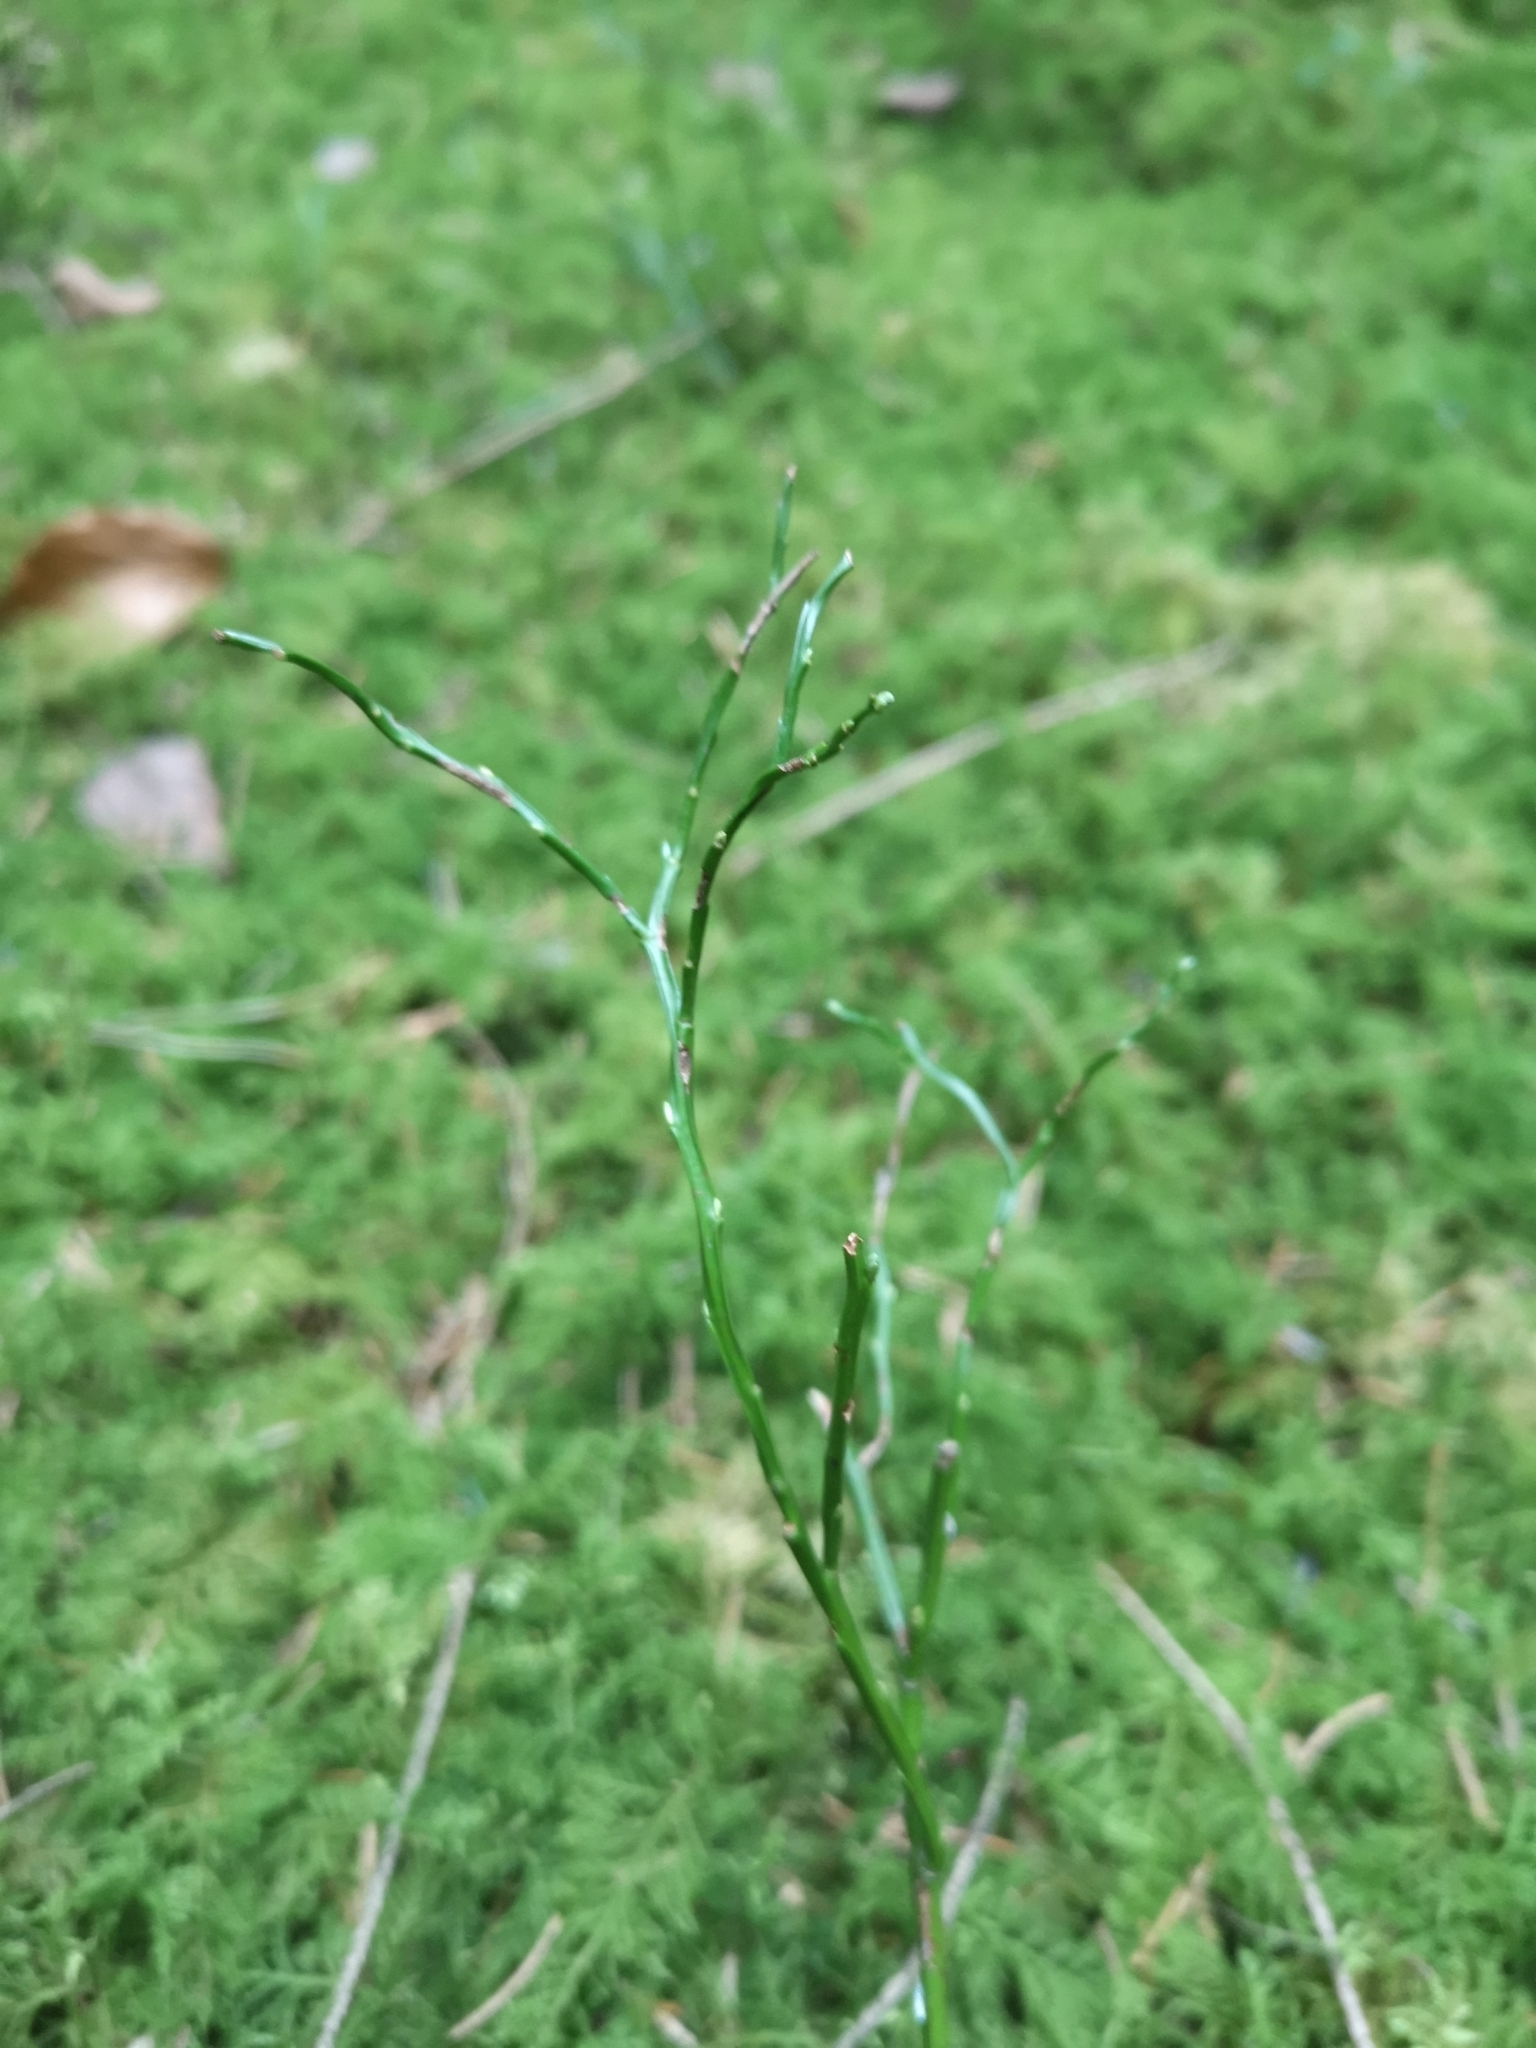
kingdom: Plantae
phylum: Tracheophyta
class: Magnoliopsida
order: Ericales
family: Ericaceae
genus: Vaccinium
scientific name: Vaccinium myrtillus
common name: Bilberry
